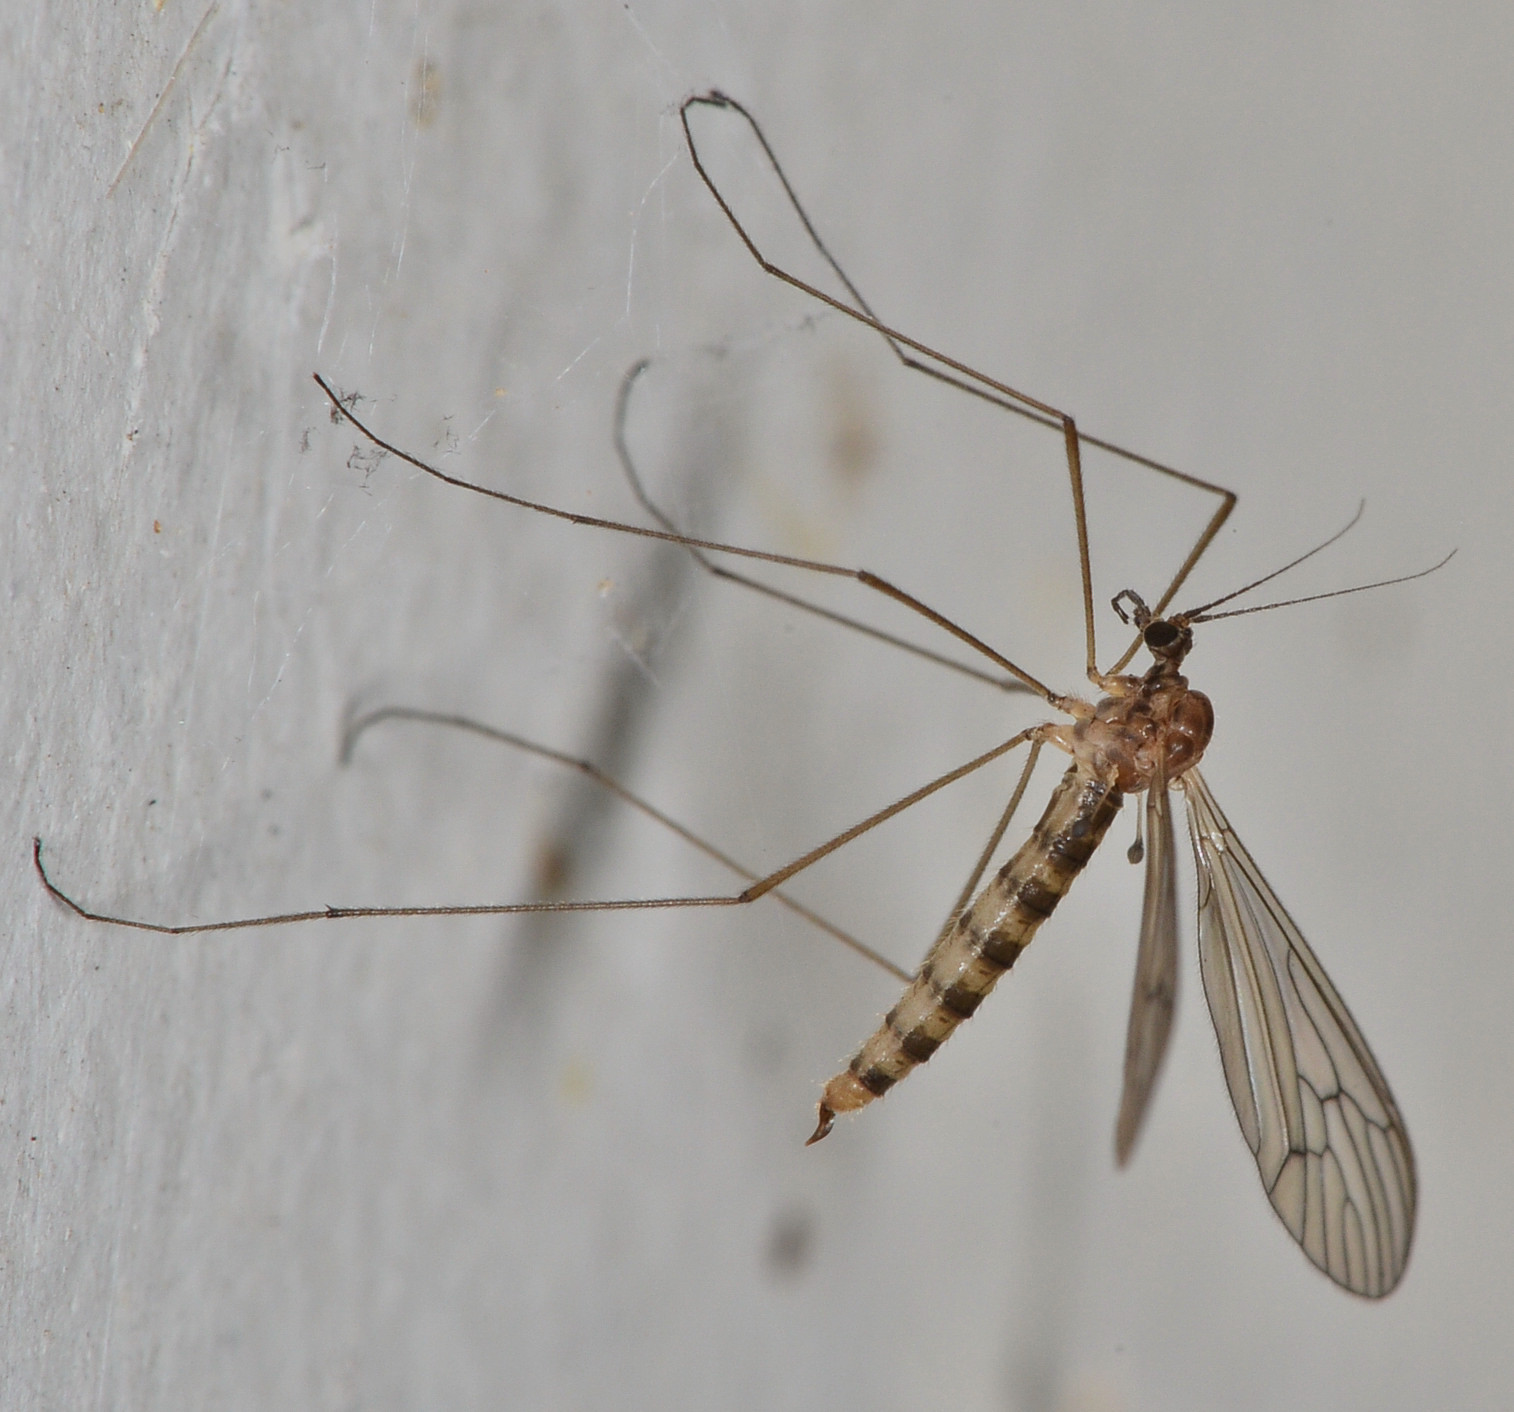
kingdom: Animalia
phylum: Arthropoda
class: Insecta
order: Diptera
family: Trichoceridae
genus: Trichocera
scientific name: Trichocera annulata
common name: Winter gnat
